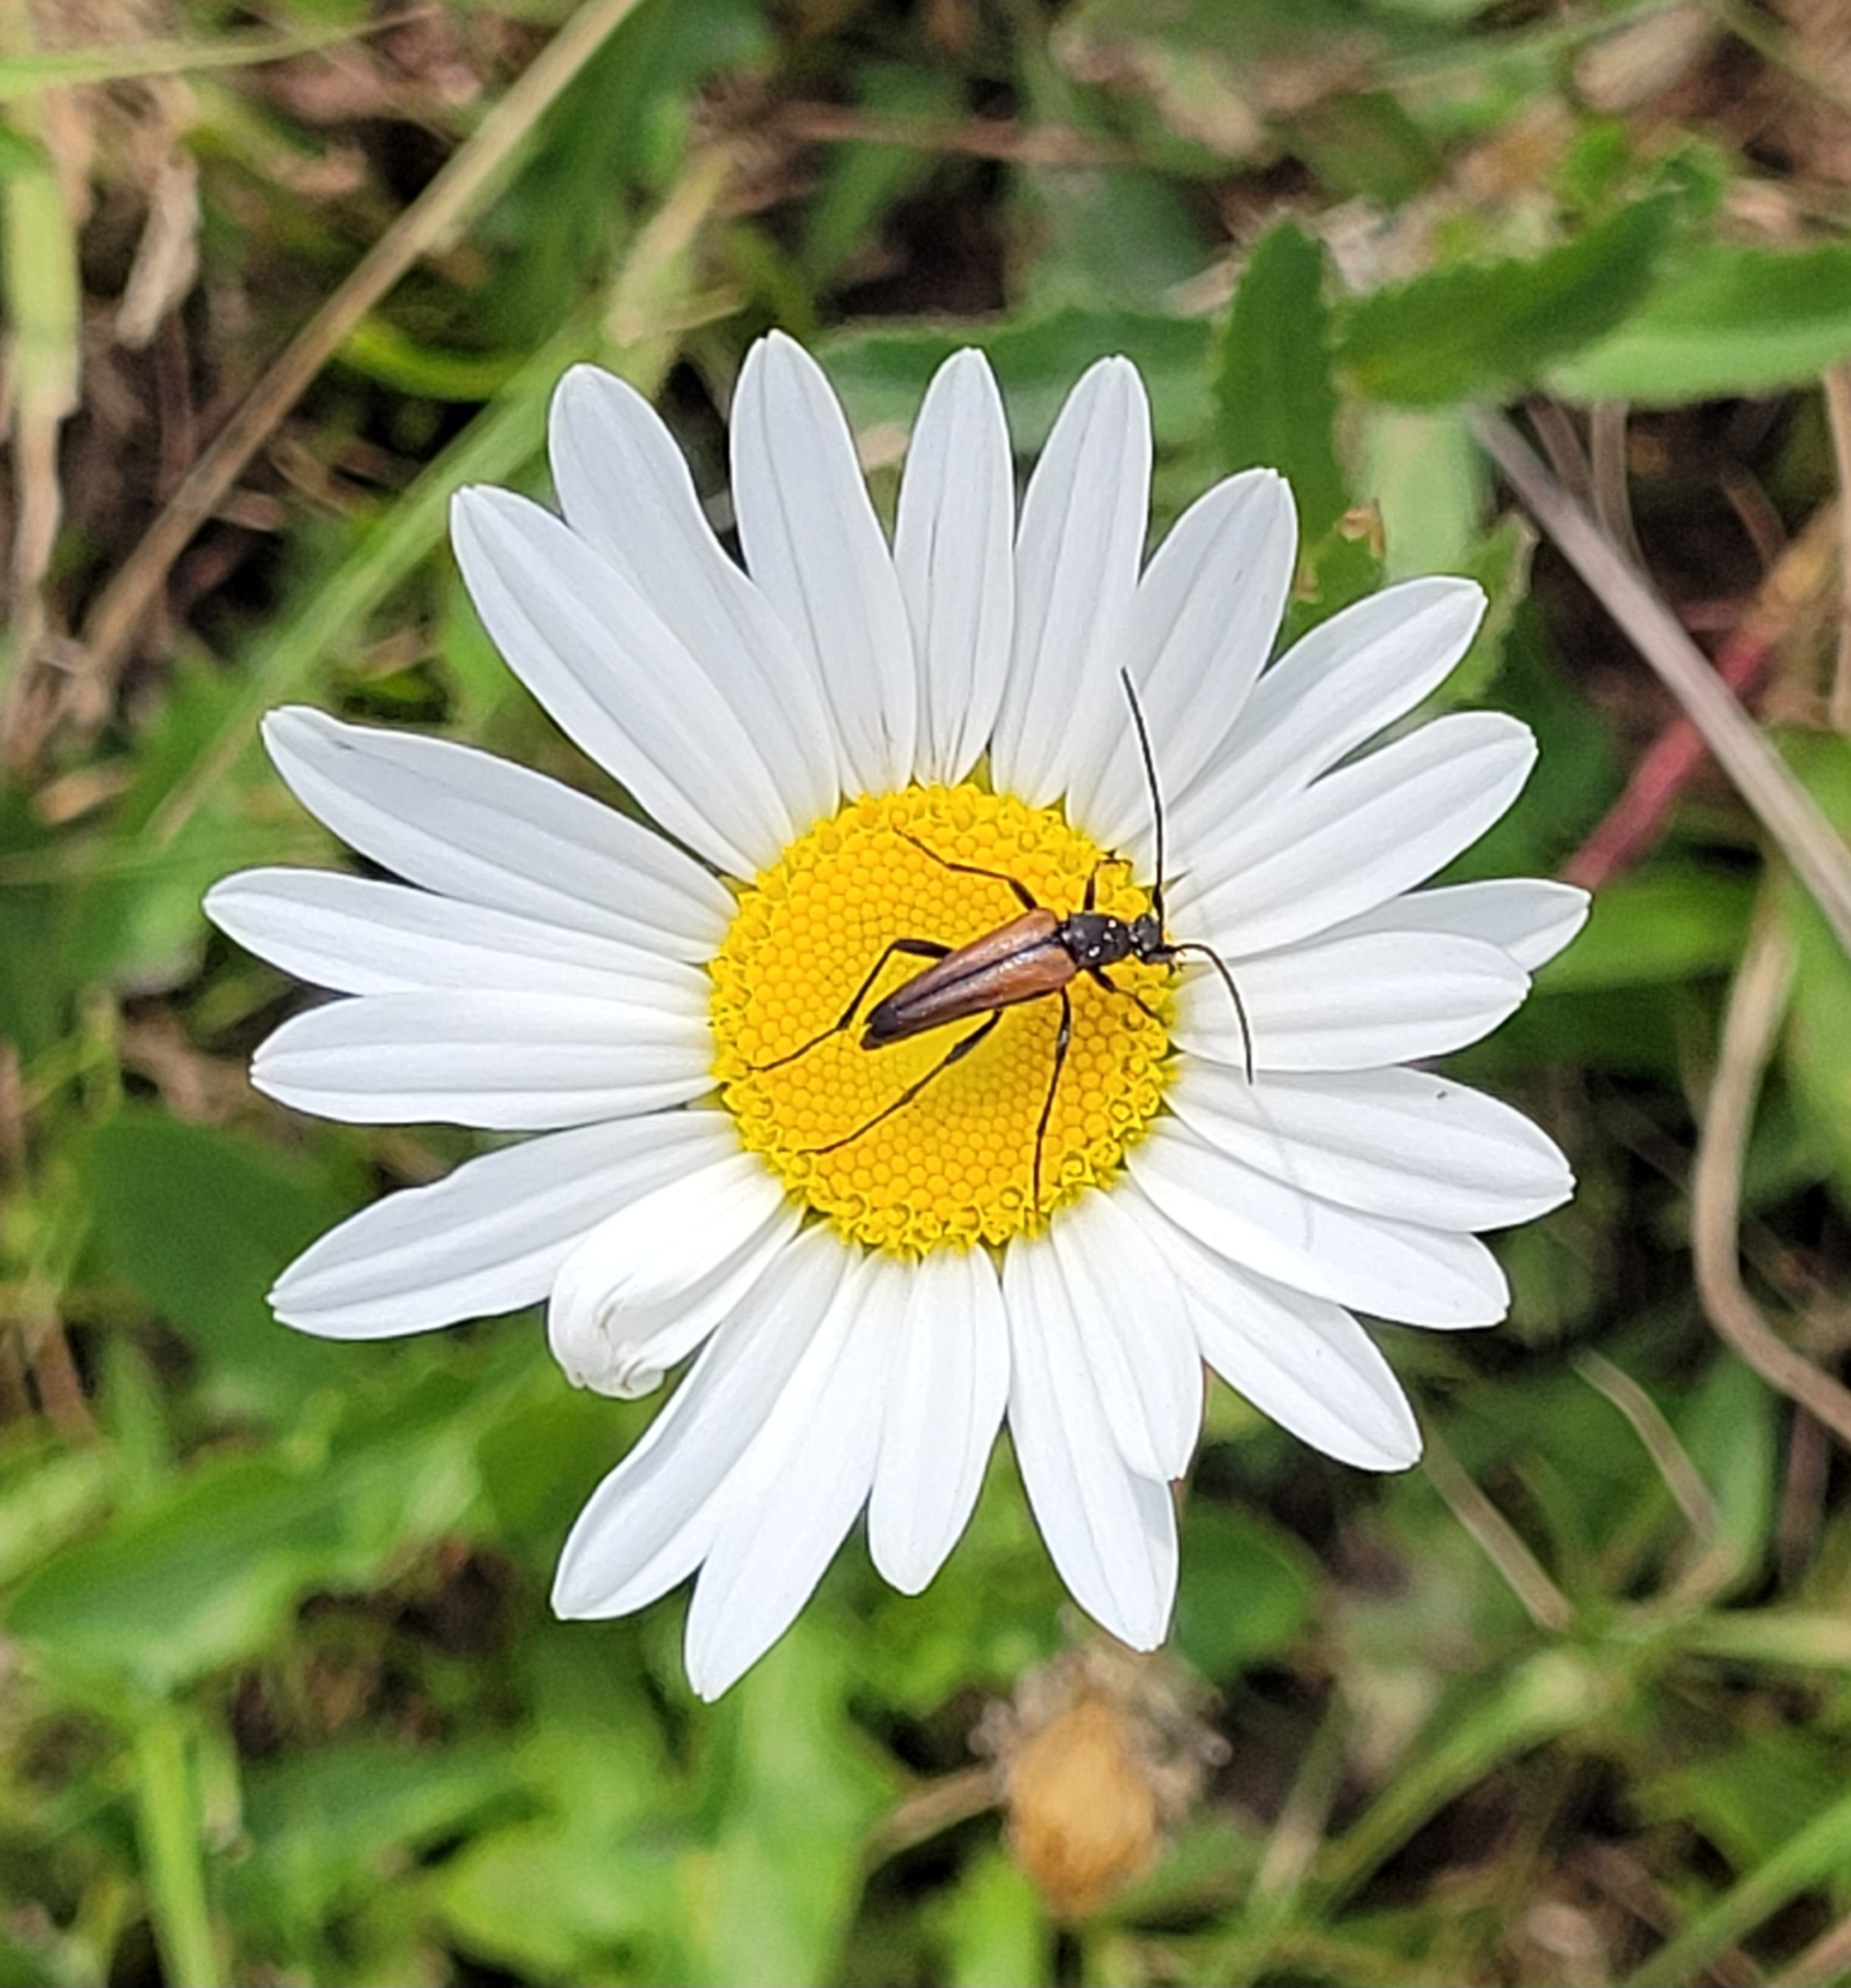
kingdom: Animalia
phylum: Arthropoda
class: Insecta
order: Coleoptera
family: Cerambycidae
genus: Stenurella
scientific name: Stenurella melanura
